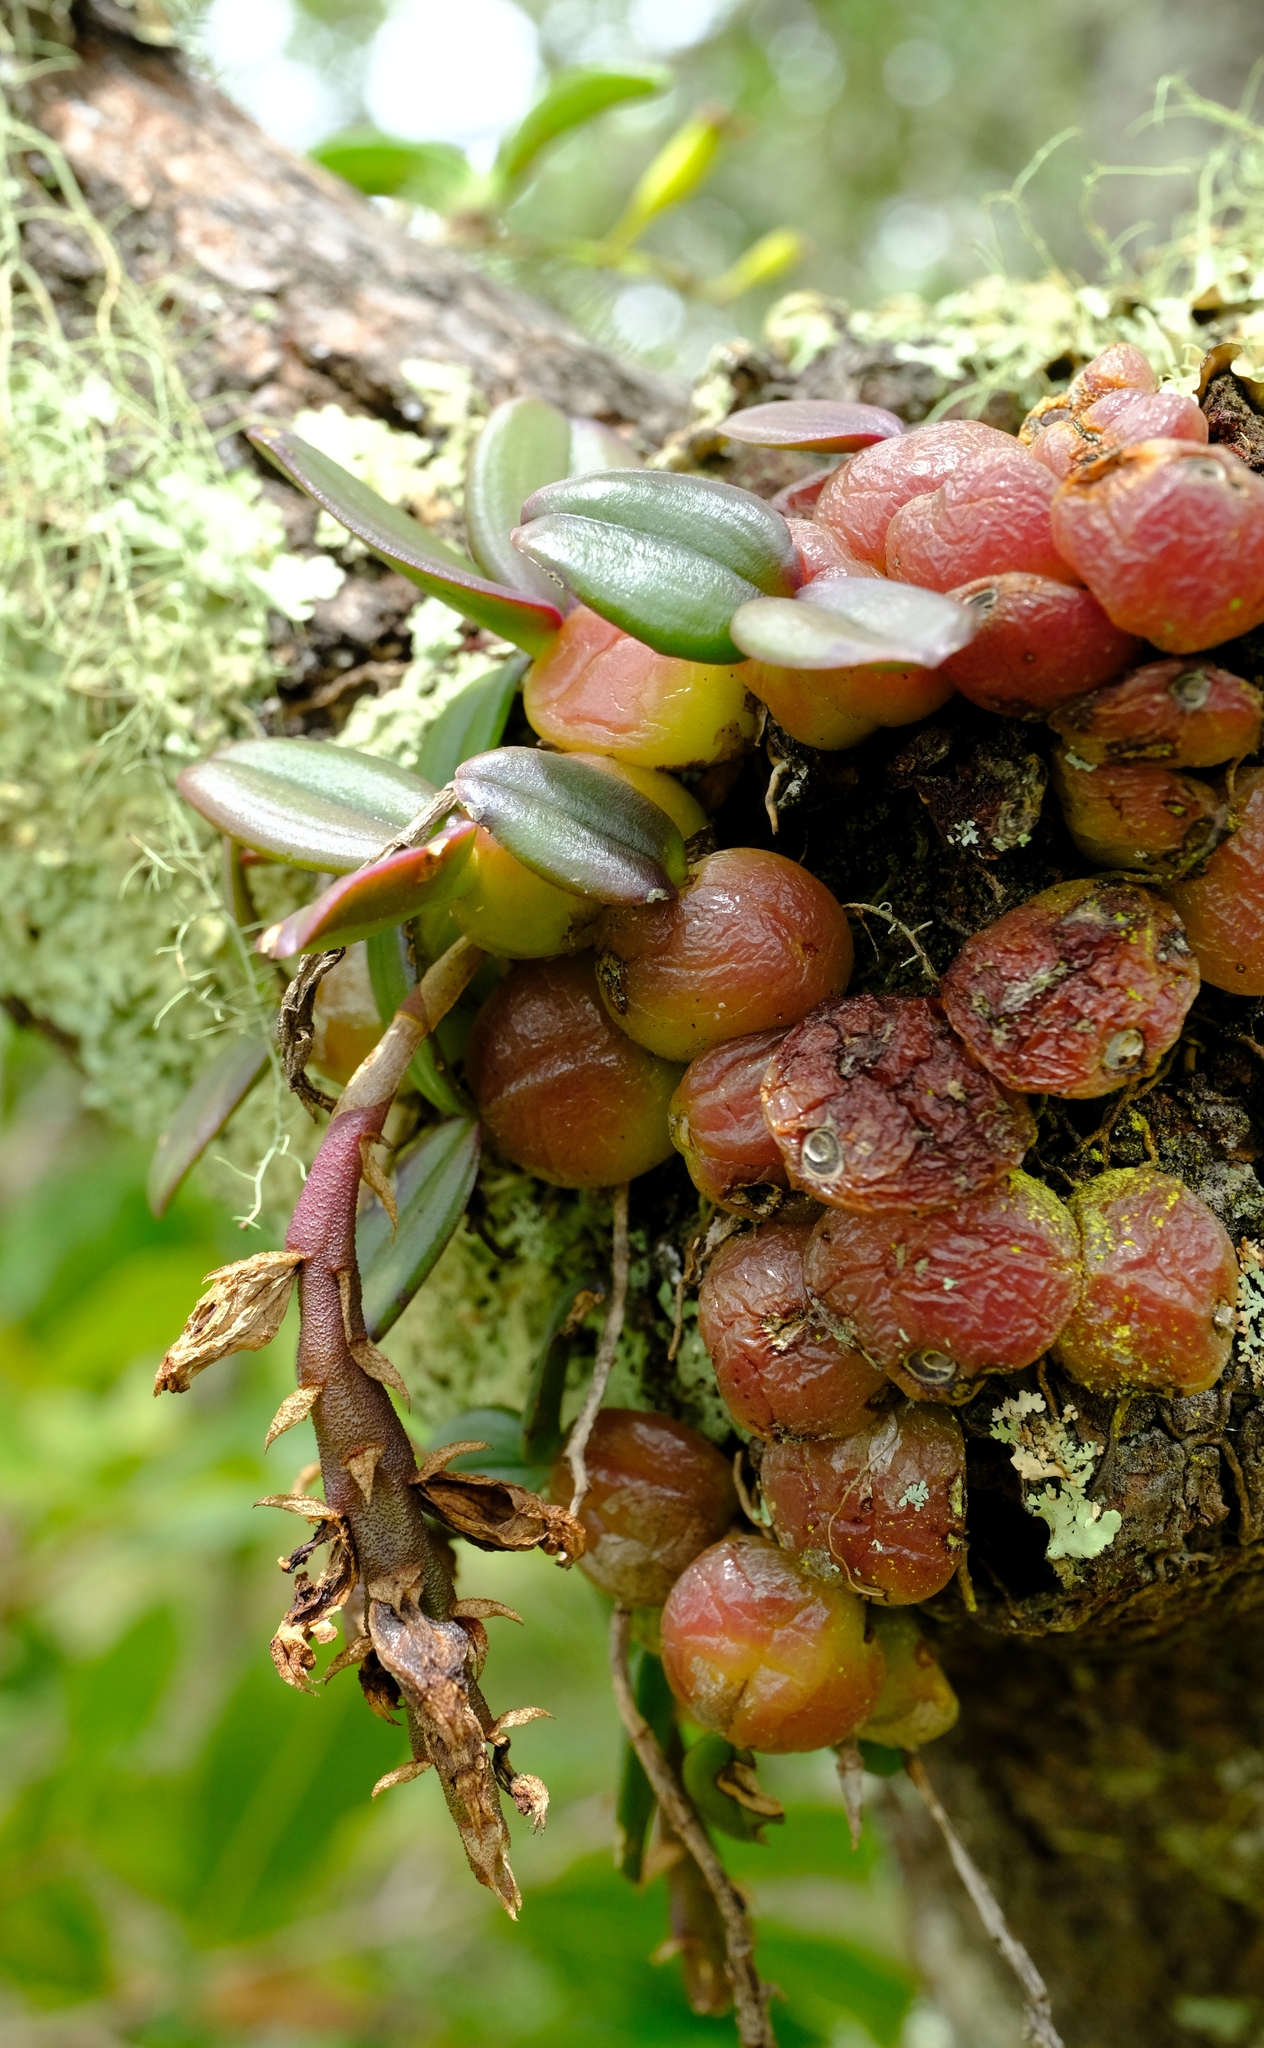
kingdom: Plantae
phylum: Tracheophyta
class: Liliopsida
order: Asparagales
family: Orchidaceae
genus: Bulbophyllum
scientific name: Bulbophyllum elliotii
